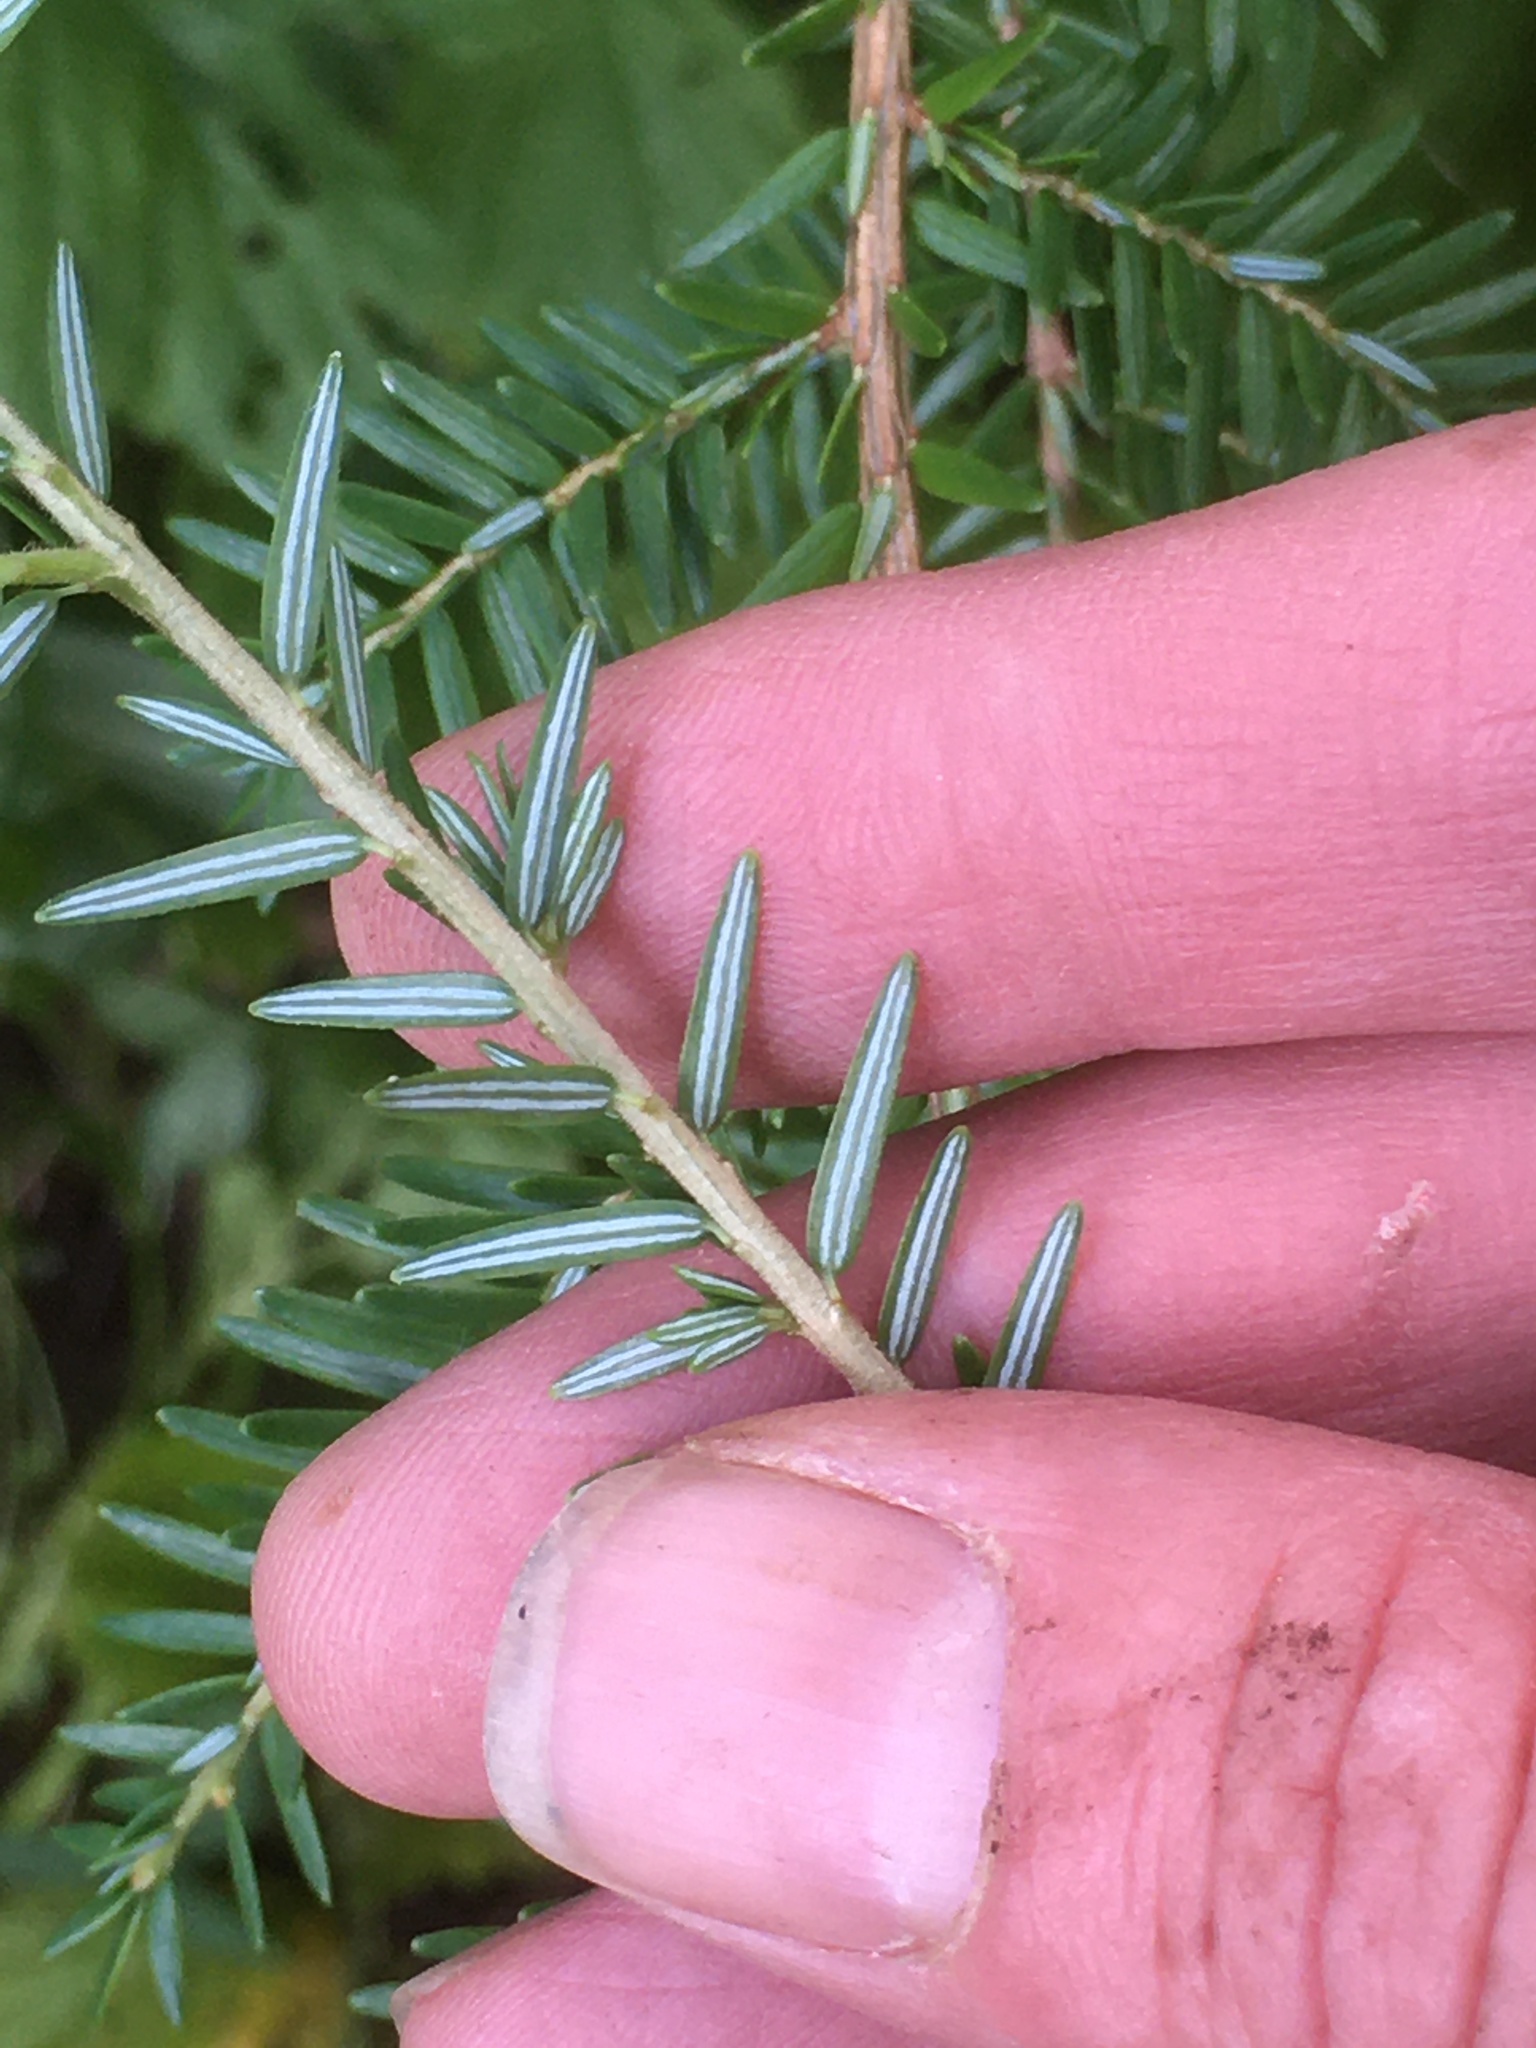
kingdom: Plantae
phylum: Tracheophyta
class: Pinopsida
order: Pinales
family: Pinaceae
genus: Tsuga
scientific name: Tsuga canadensis
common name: Eastern hemlock
